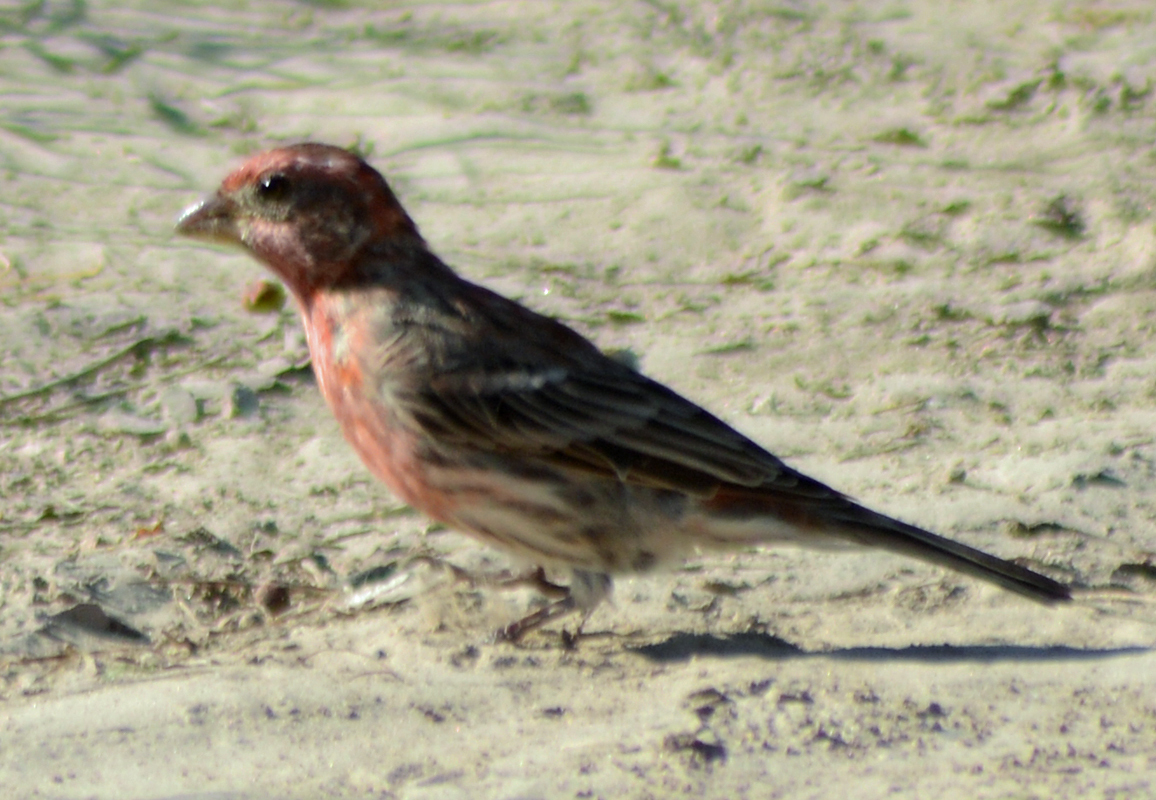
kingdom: Animalia
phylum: Chordata
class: Aves
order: Passeriformes
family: Fringillidae
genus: Haemorhous
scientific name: Haemorhous mexicanus
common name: House finch
